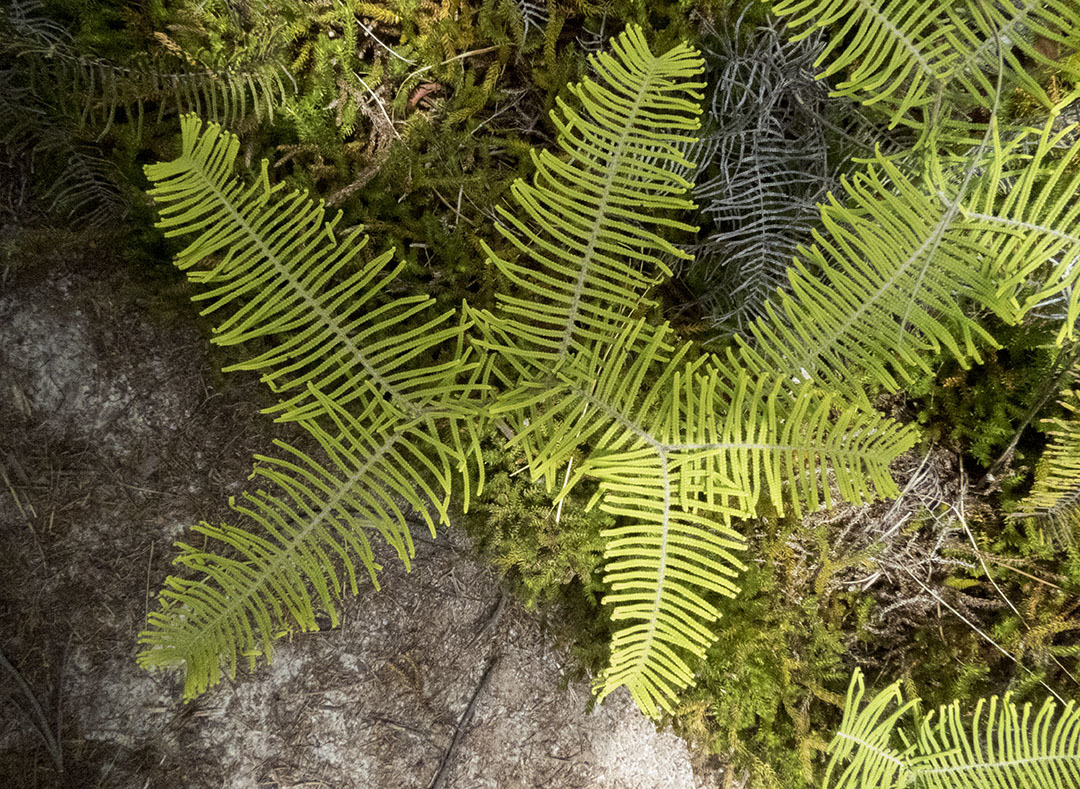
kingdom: Plantae
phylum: Tracheophyta
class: Polypodiopsida
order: Gleicheniales
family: Gleicheniaceae
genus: Gleichenia
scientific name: Gleichenia dicarpa
